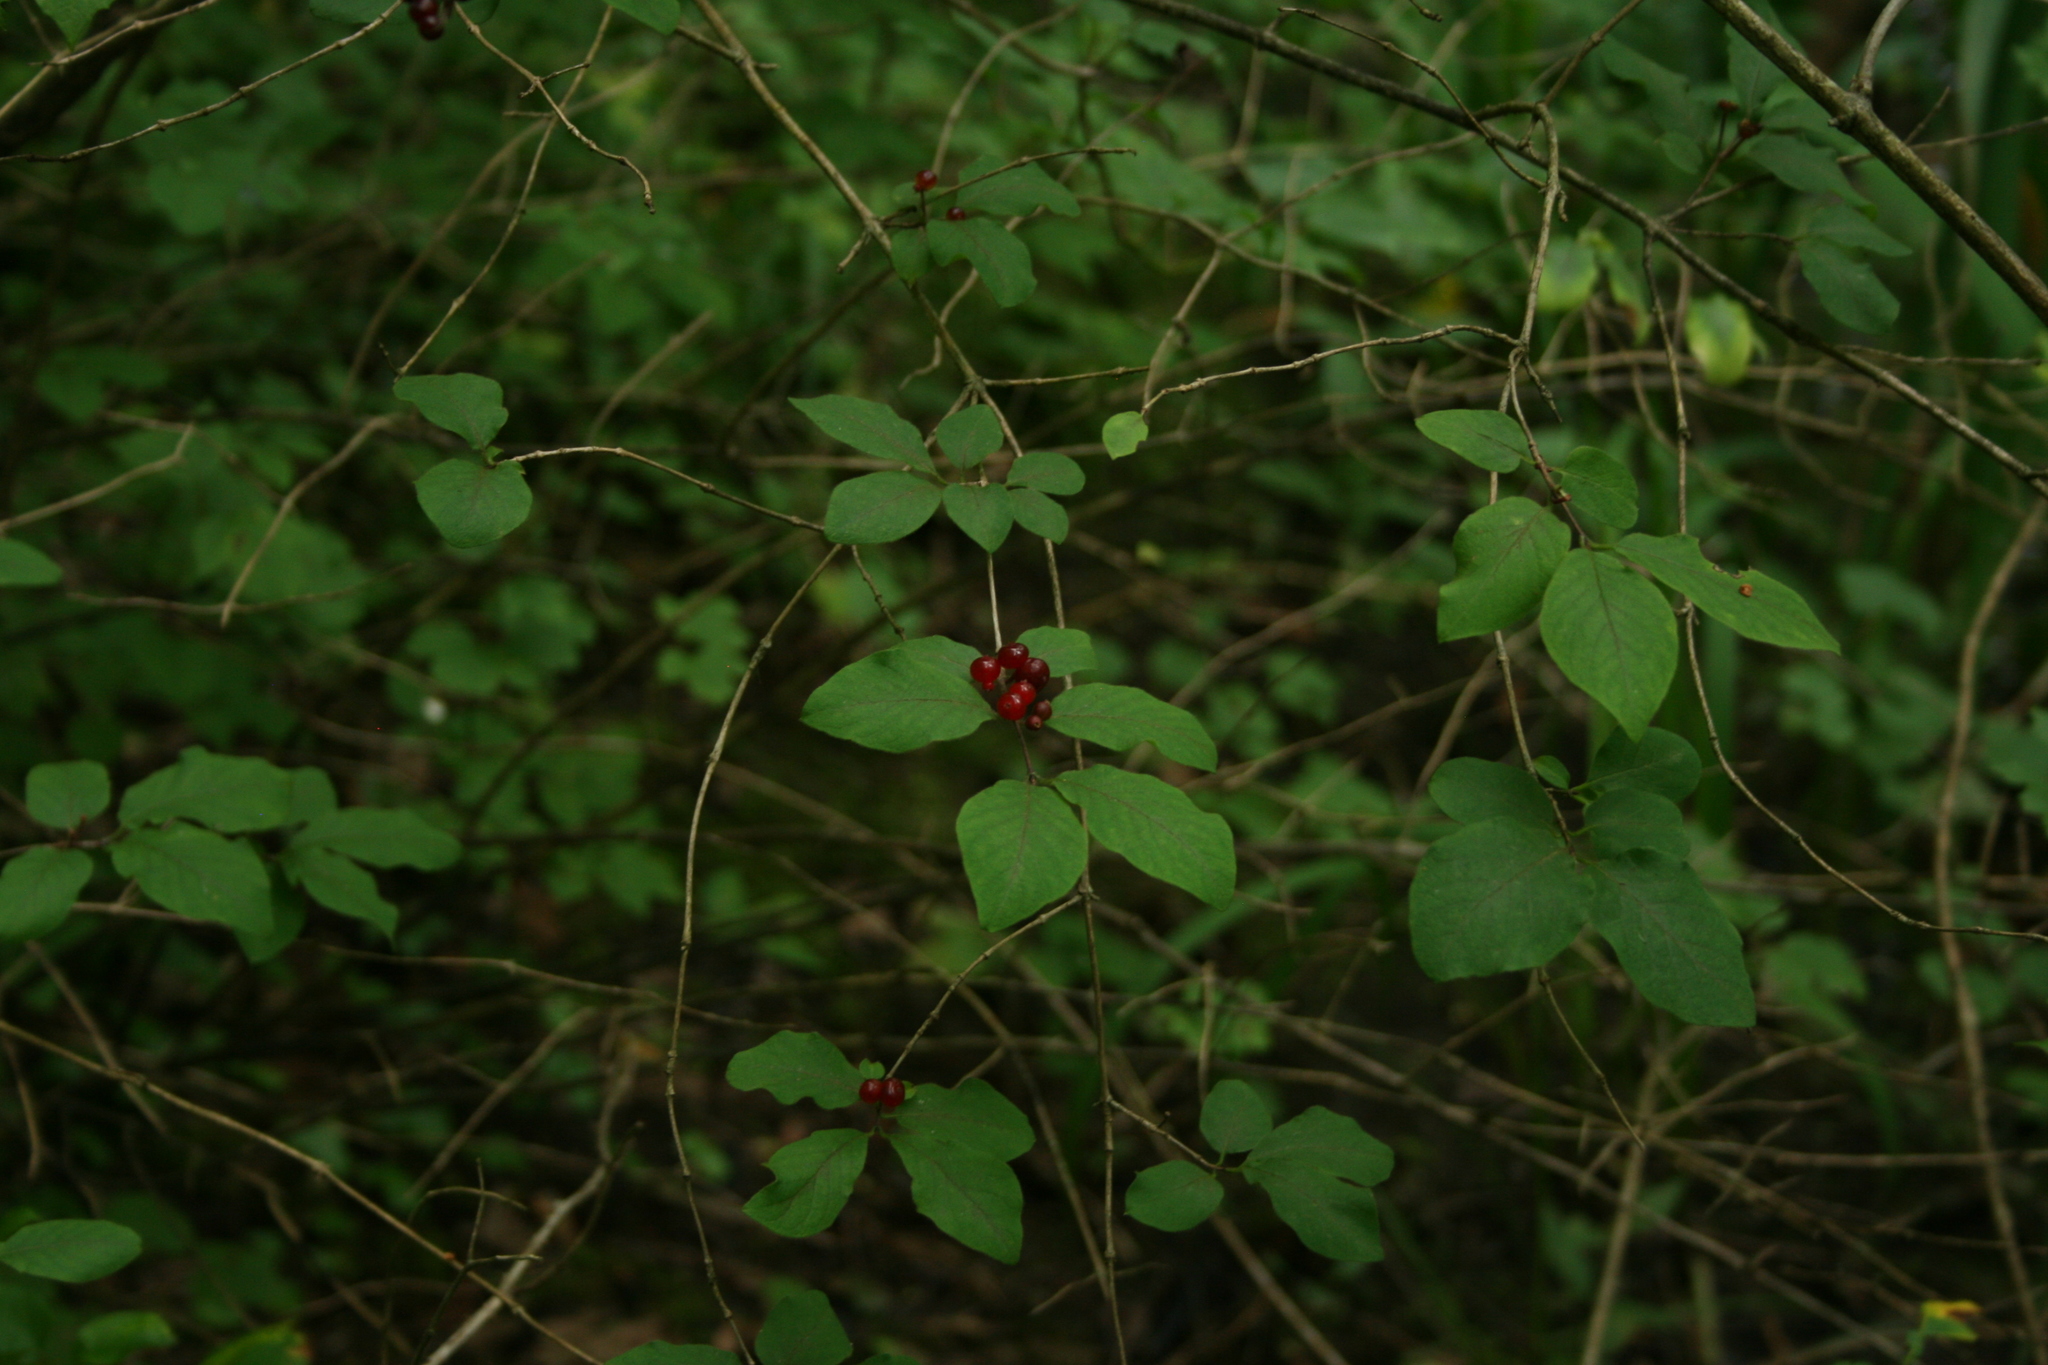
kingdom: Plantae
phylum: Tracheophyta
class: Magnoliopsida
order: Dipsacales
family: Caprifoliaceae
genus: Lonicera
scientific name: Lonicera xylosteum
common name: Fly honeysuckle
